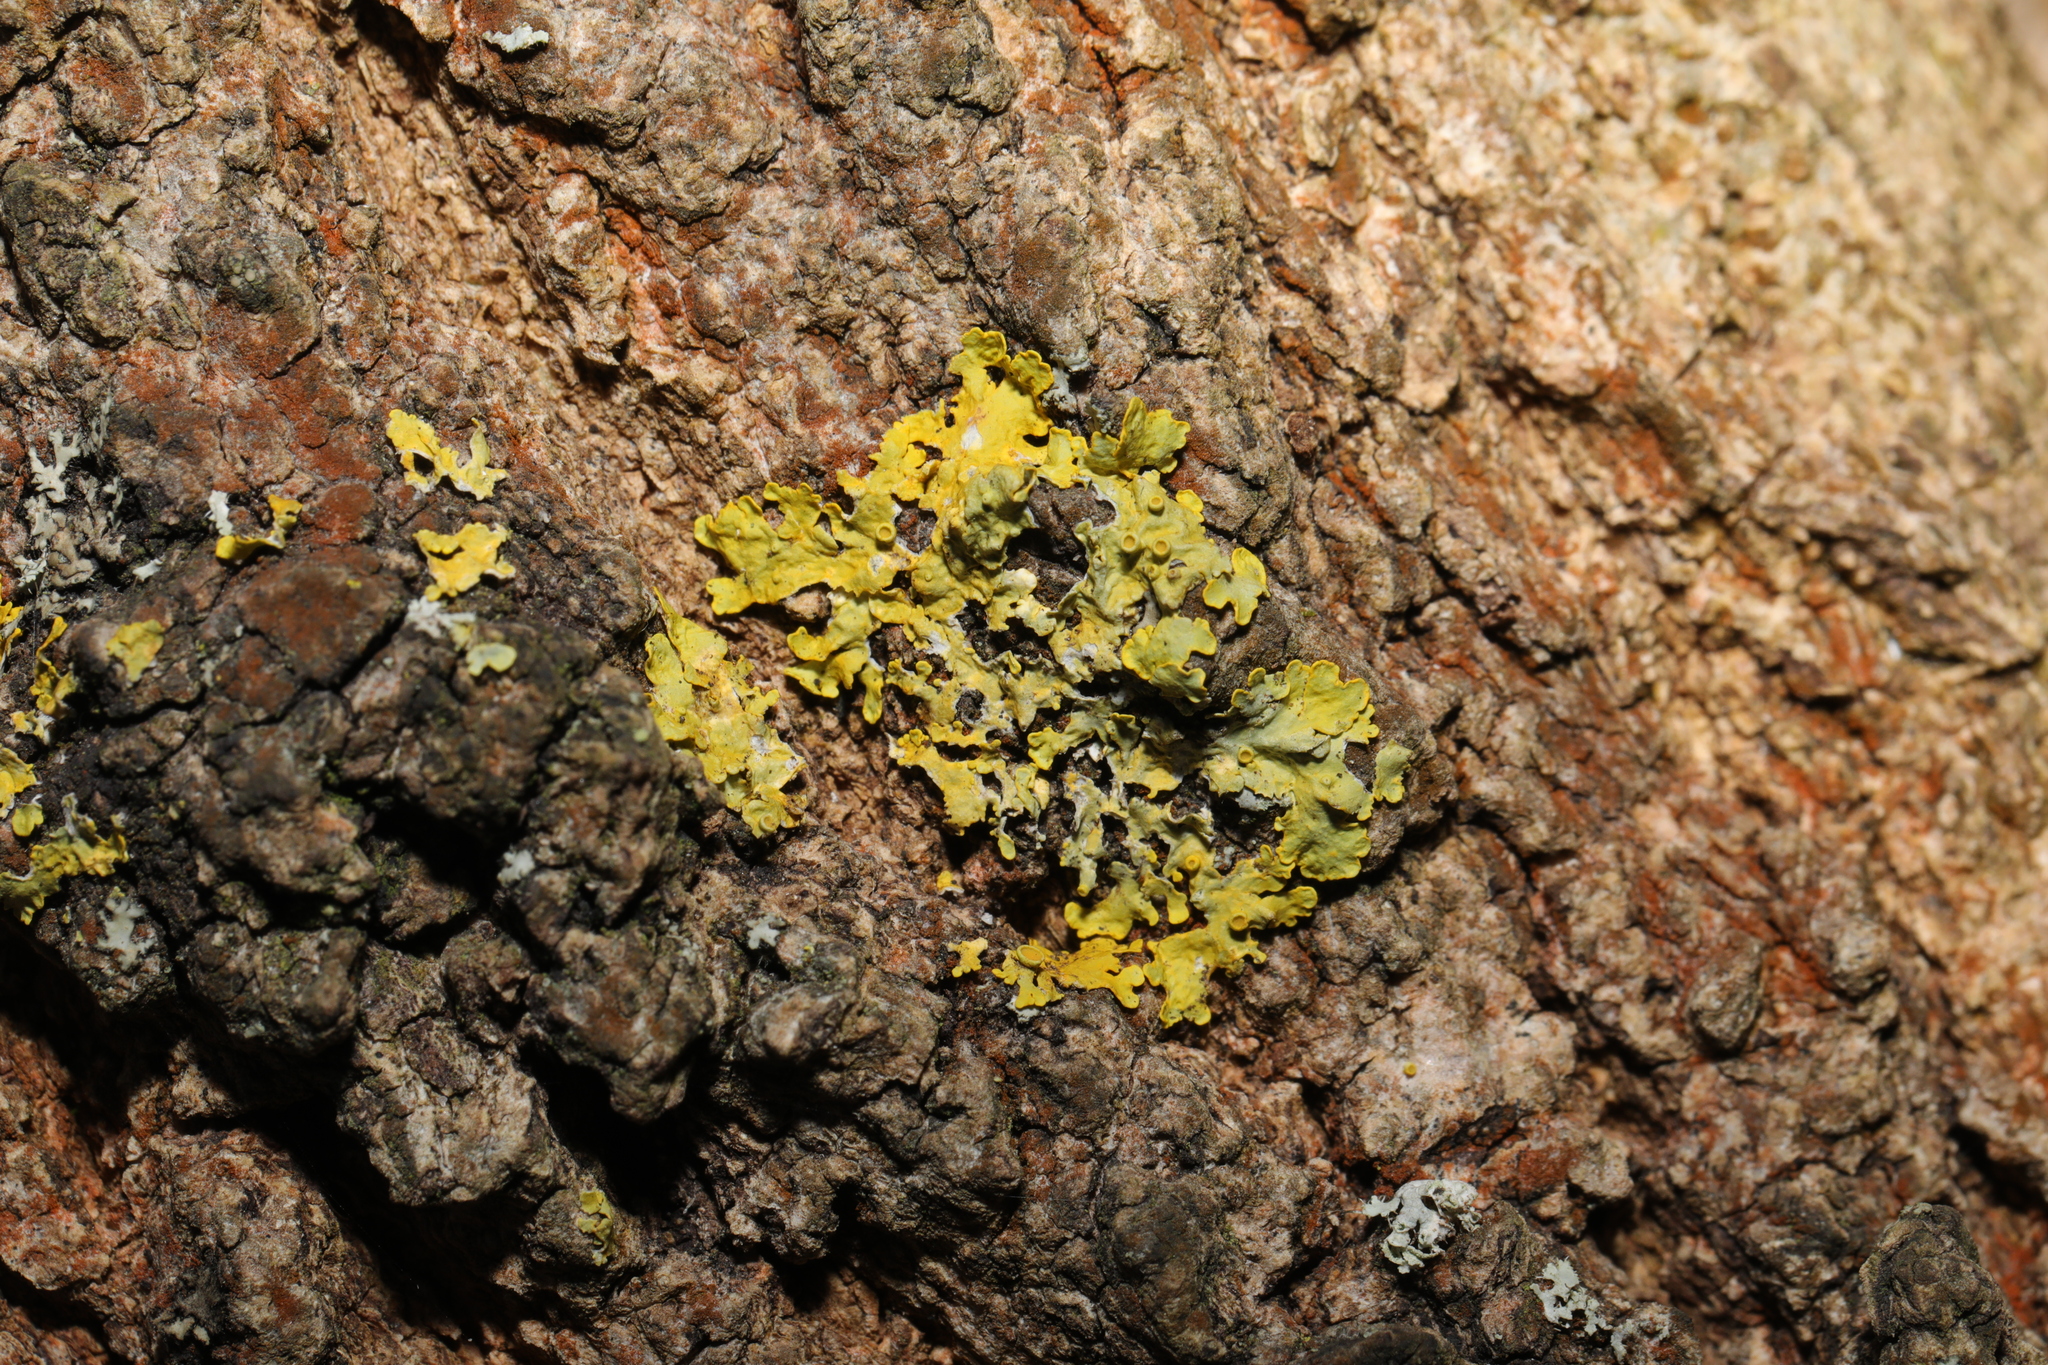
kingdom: Fungi
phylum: Ascomycota
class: Lecanoromycetes
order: Teloschistales
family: Teloschistaceae
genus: Xanthoria
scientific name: Xanthoria parietina
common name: Common orange lichen
